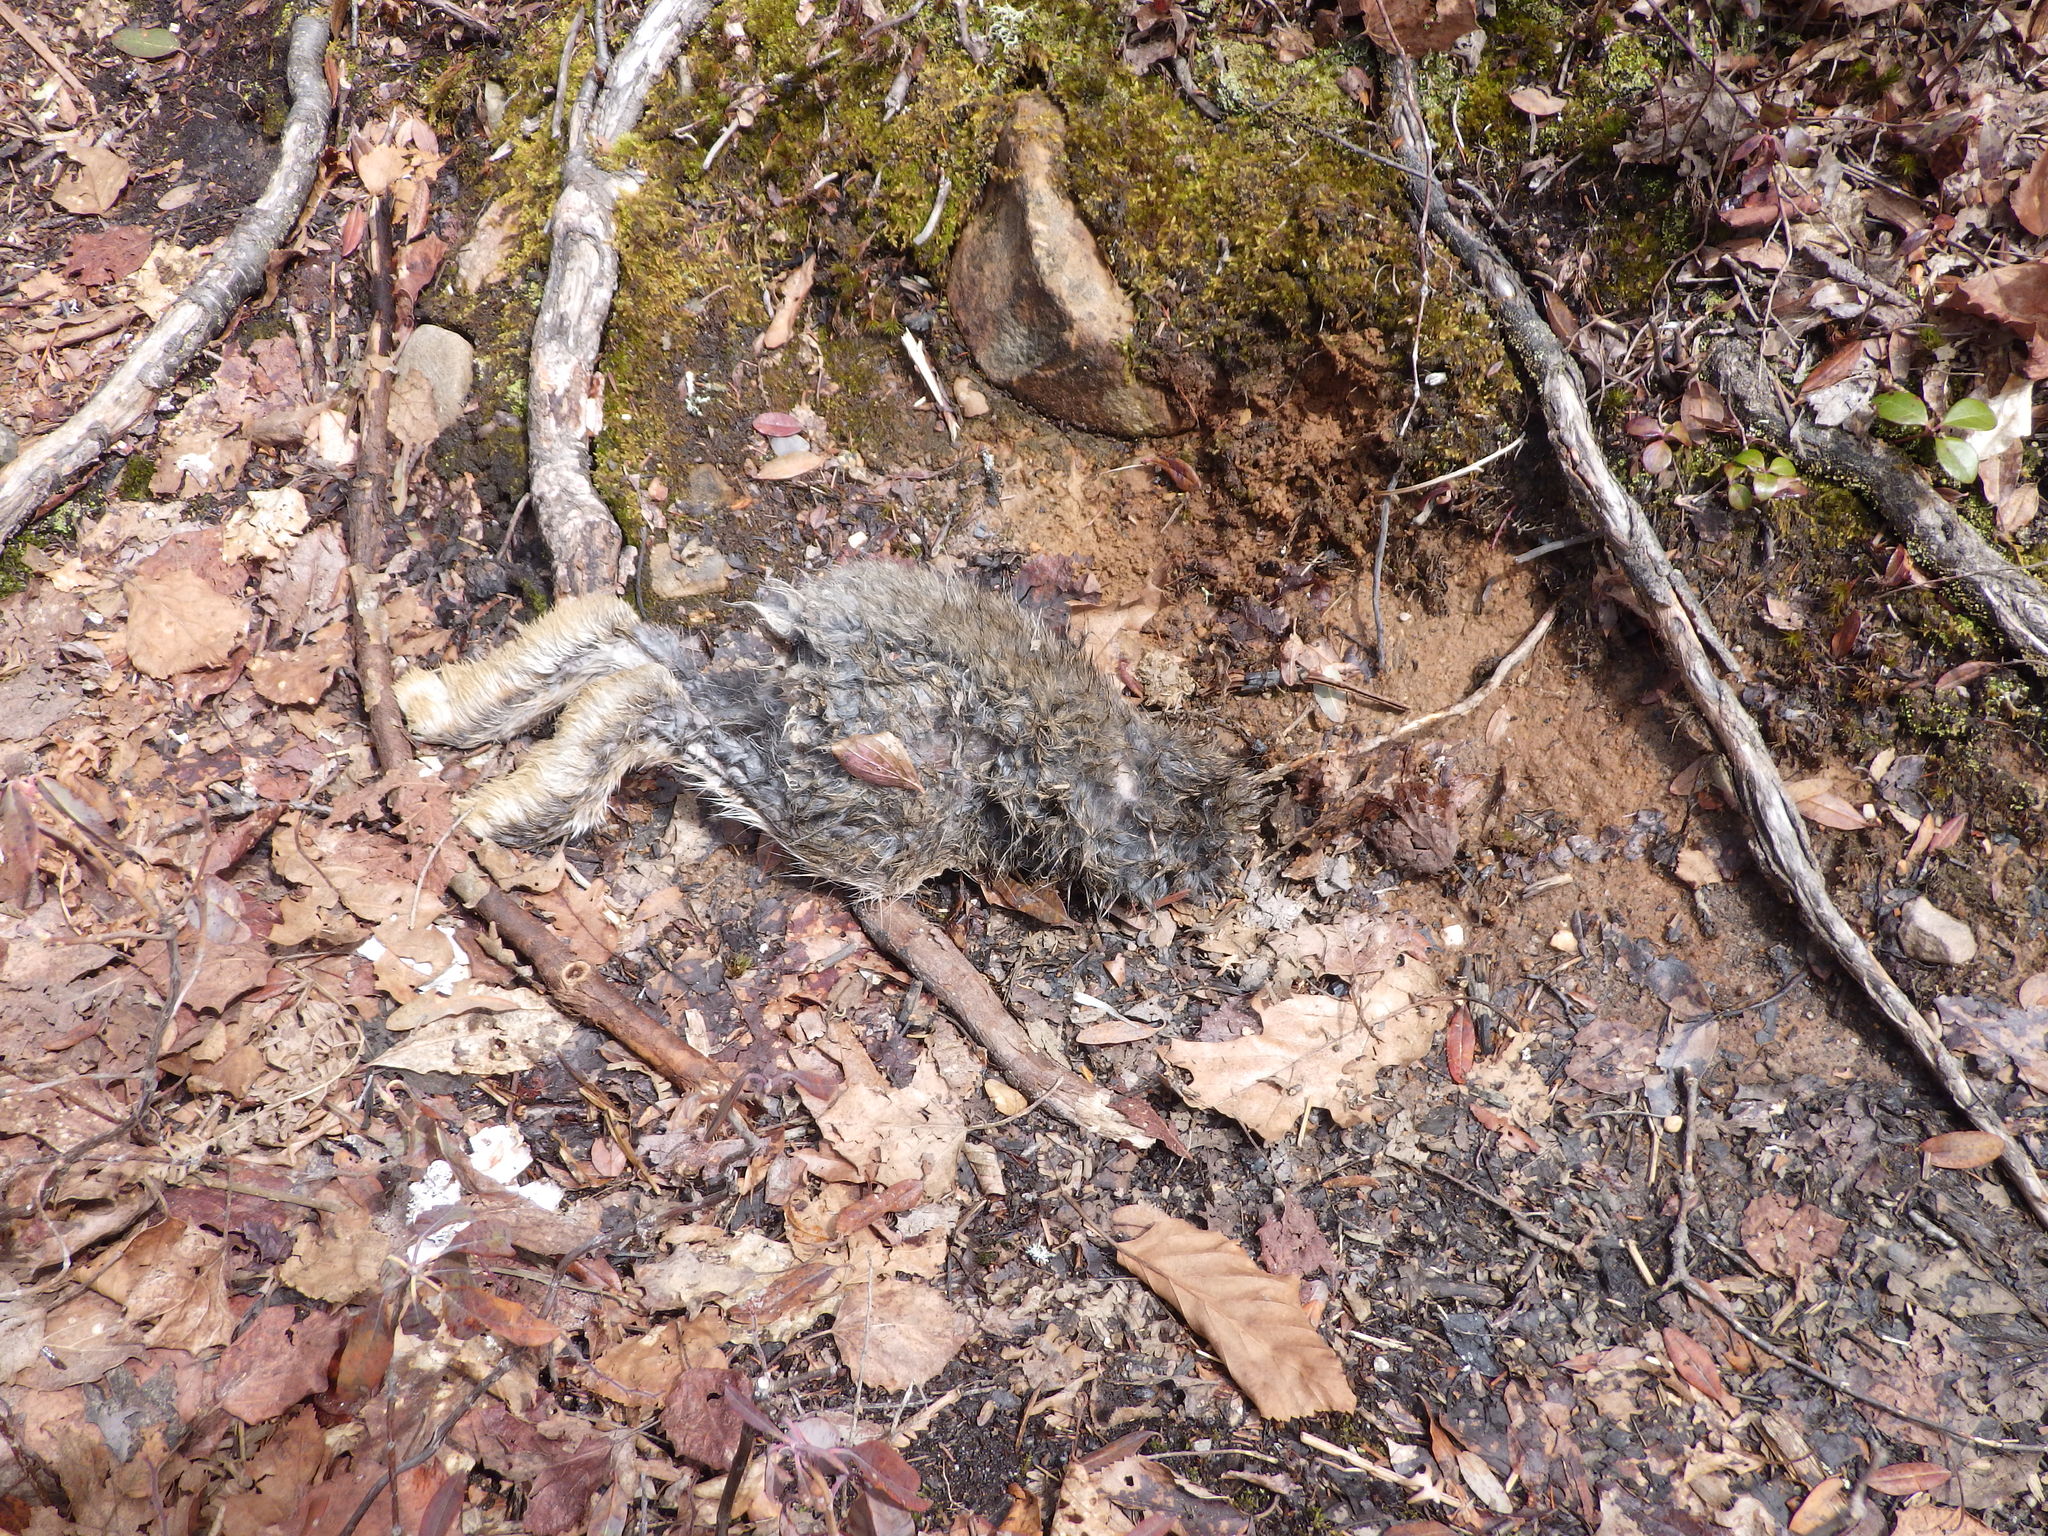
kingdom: Animalia
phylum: Chordata
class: Mammalia
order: Lagomorpha
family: Leporidae
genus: Lepus
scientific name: Lepus americanus
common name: Snowshoe hare
